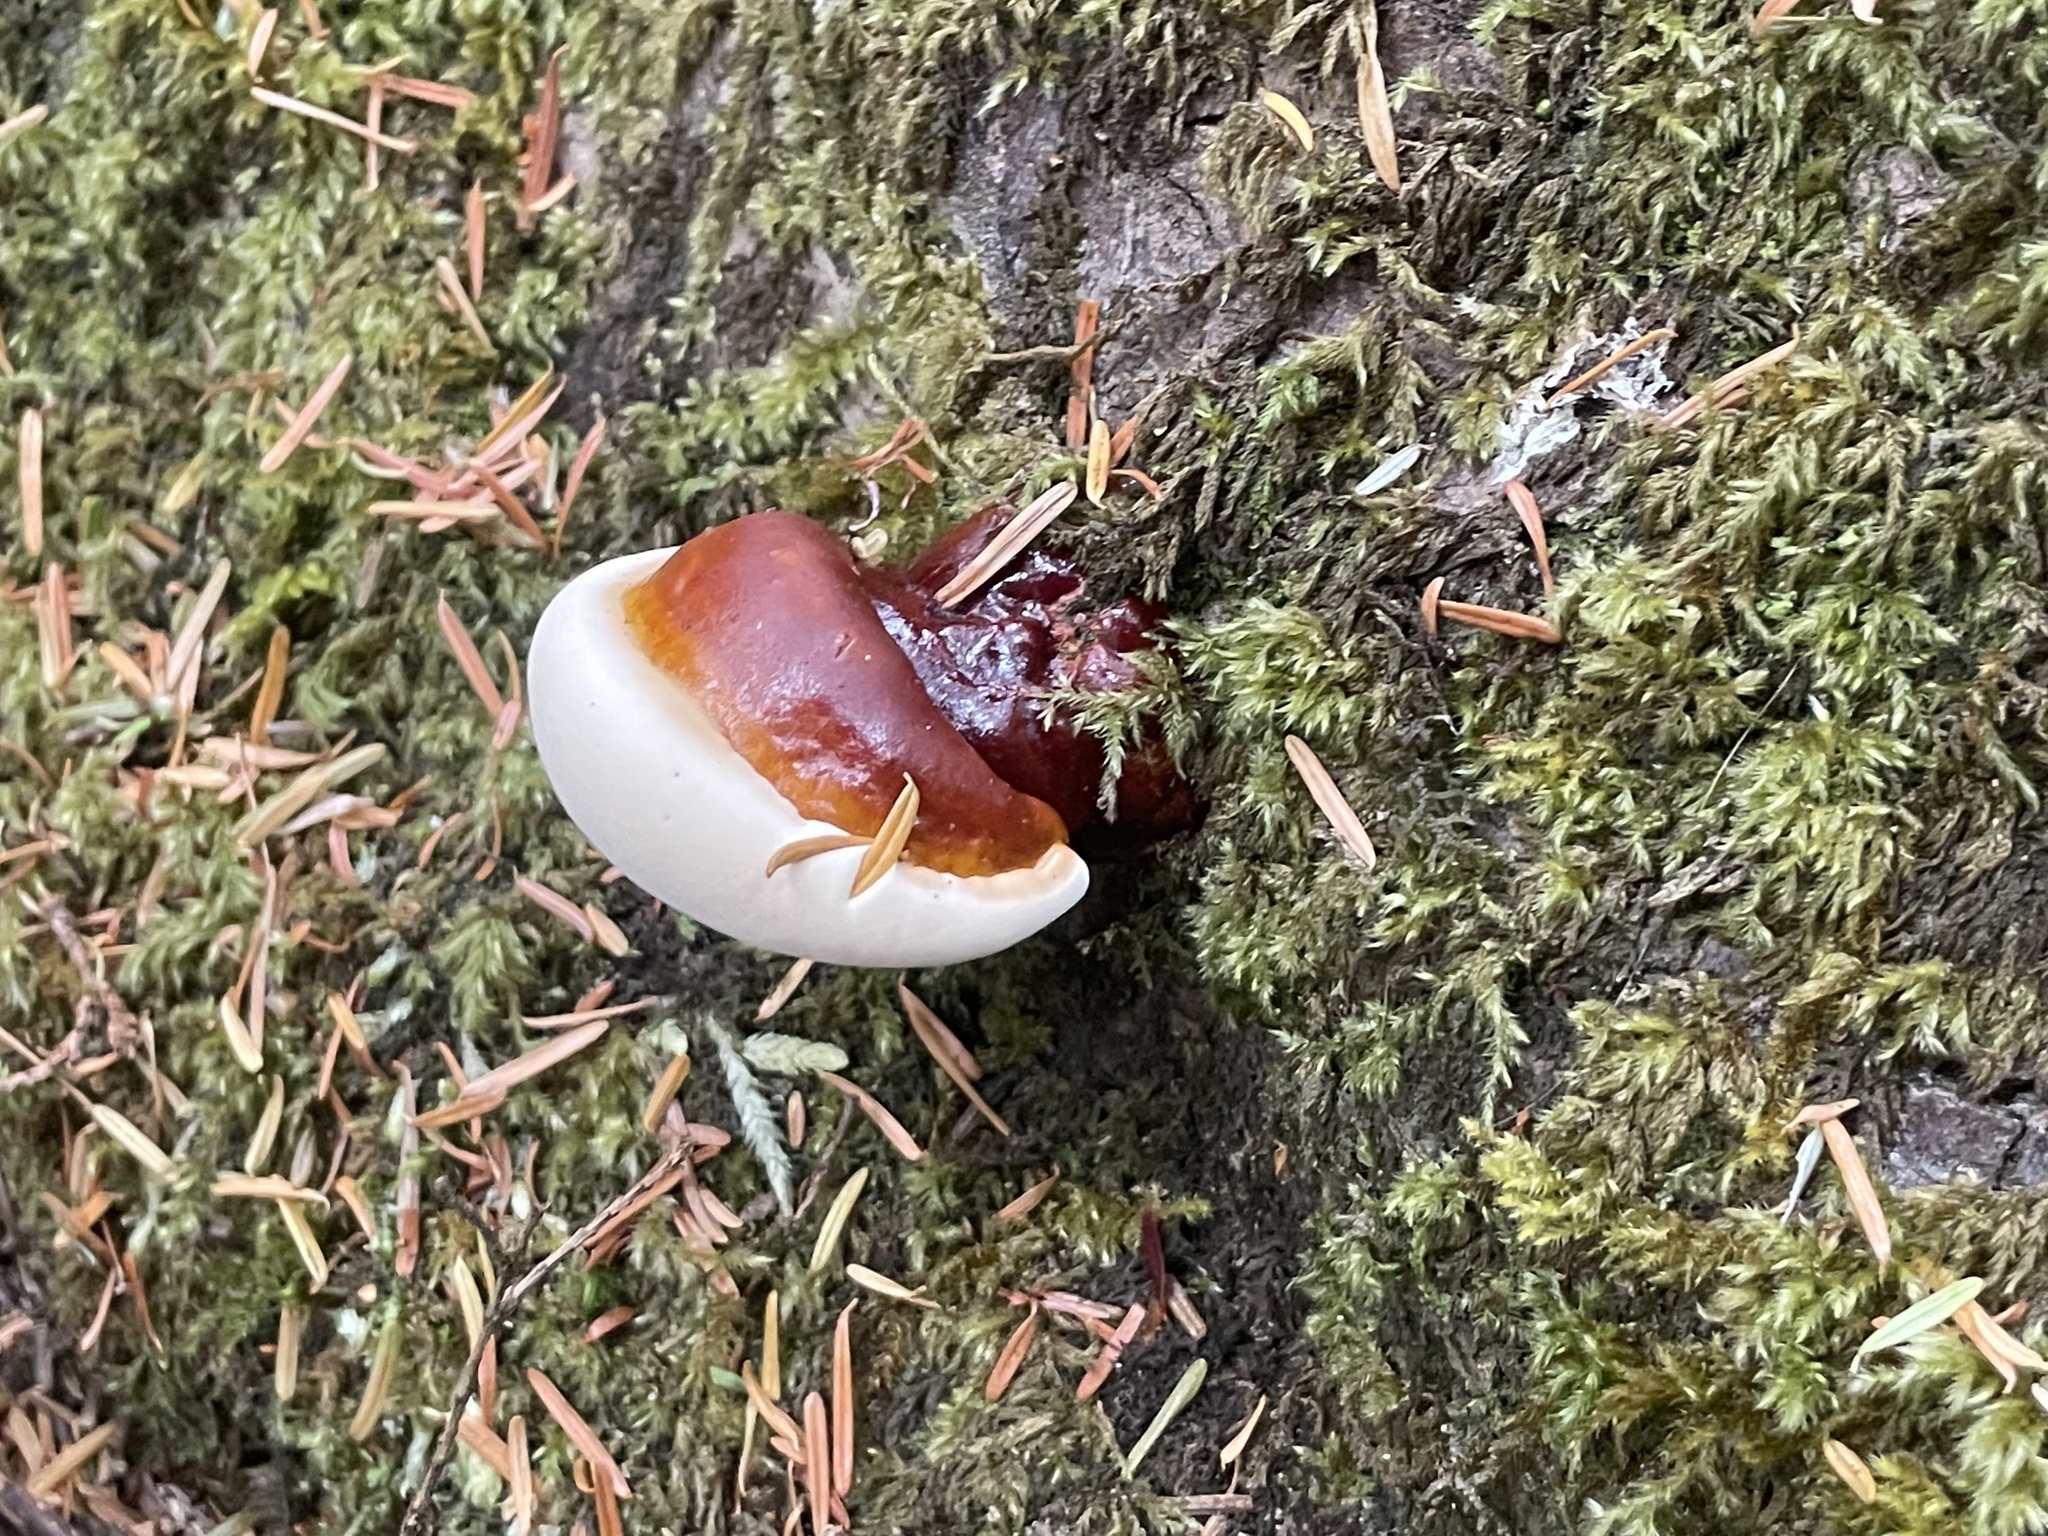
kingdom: Fungi
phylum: Basidiomycota
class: Agaricomycetes
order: Polyporales
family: Polyporaceae
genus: Ganoderma
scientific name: Ganoderma oregonense
